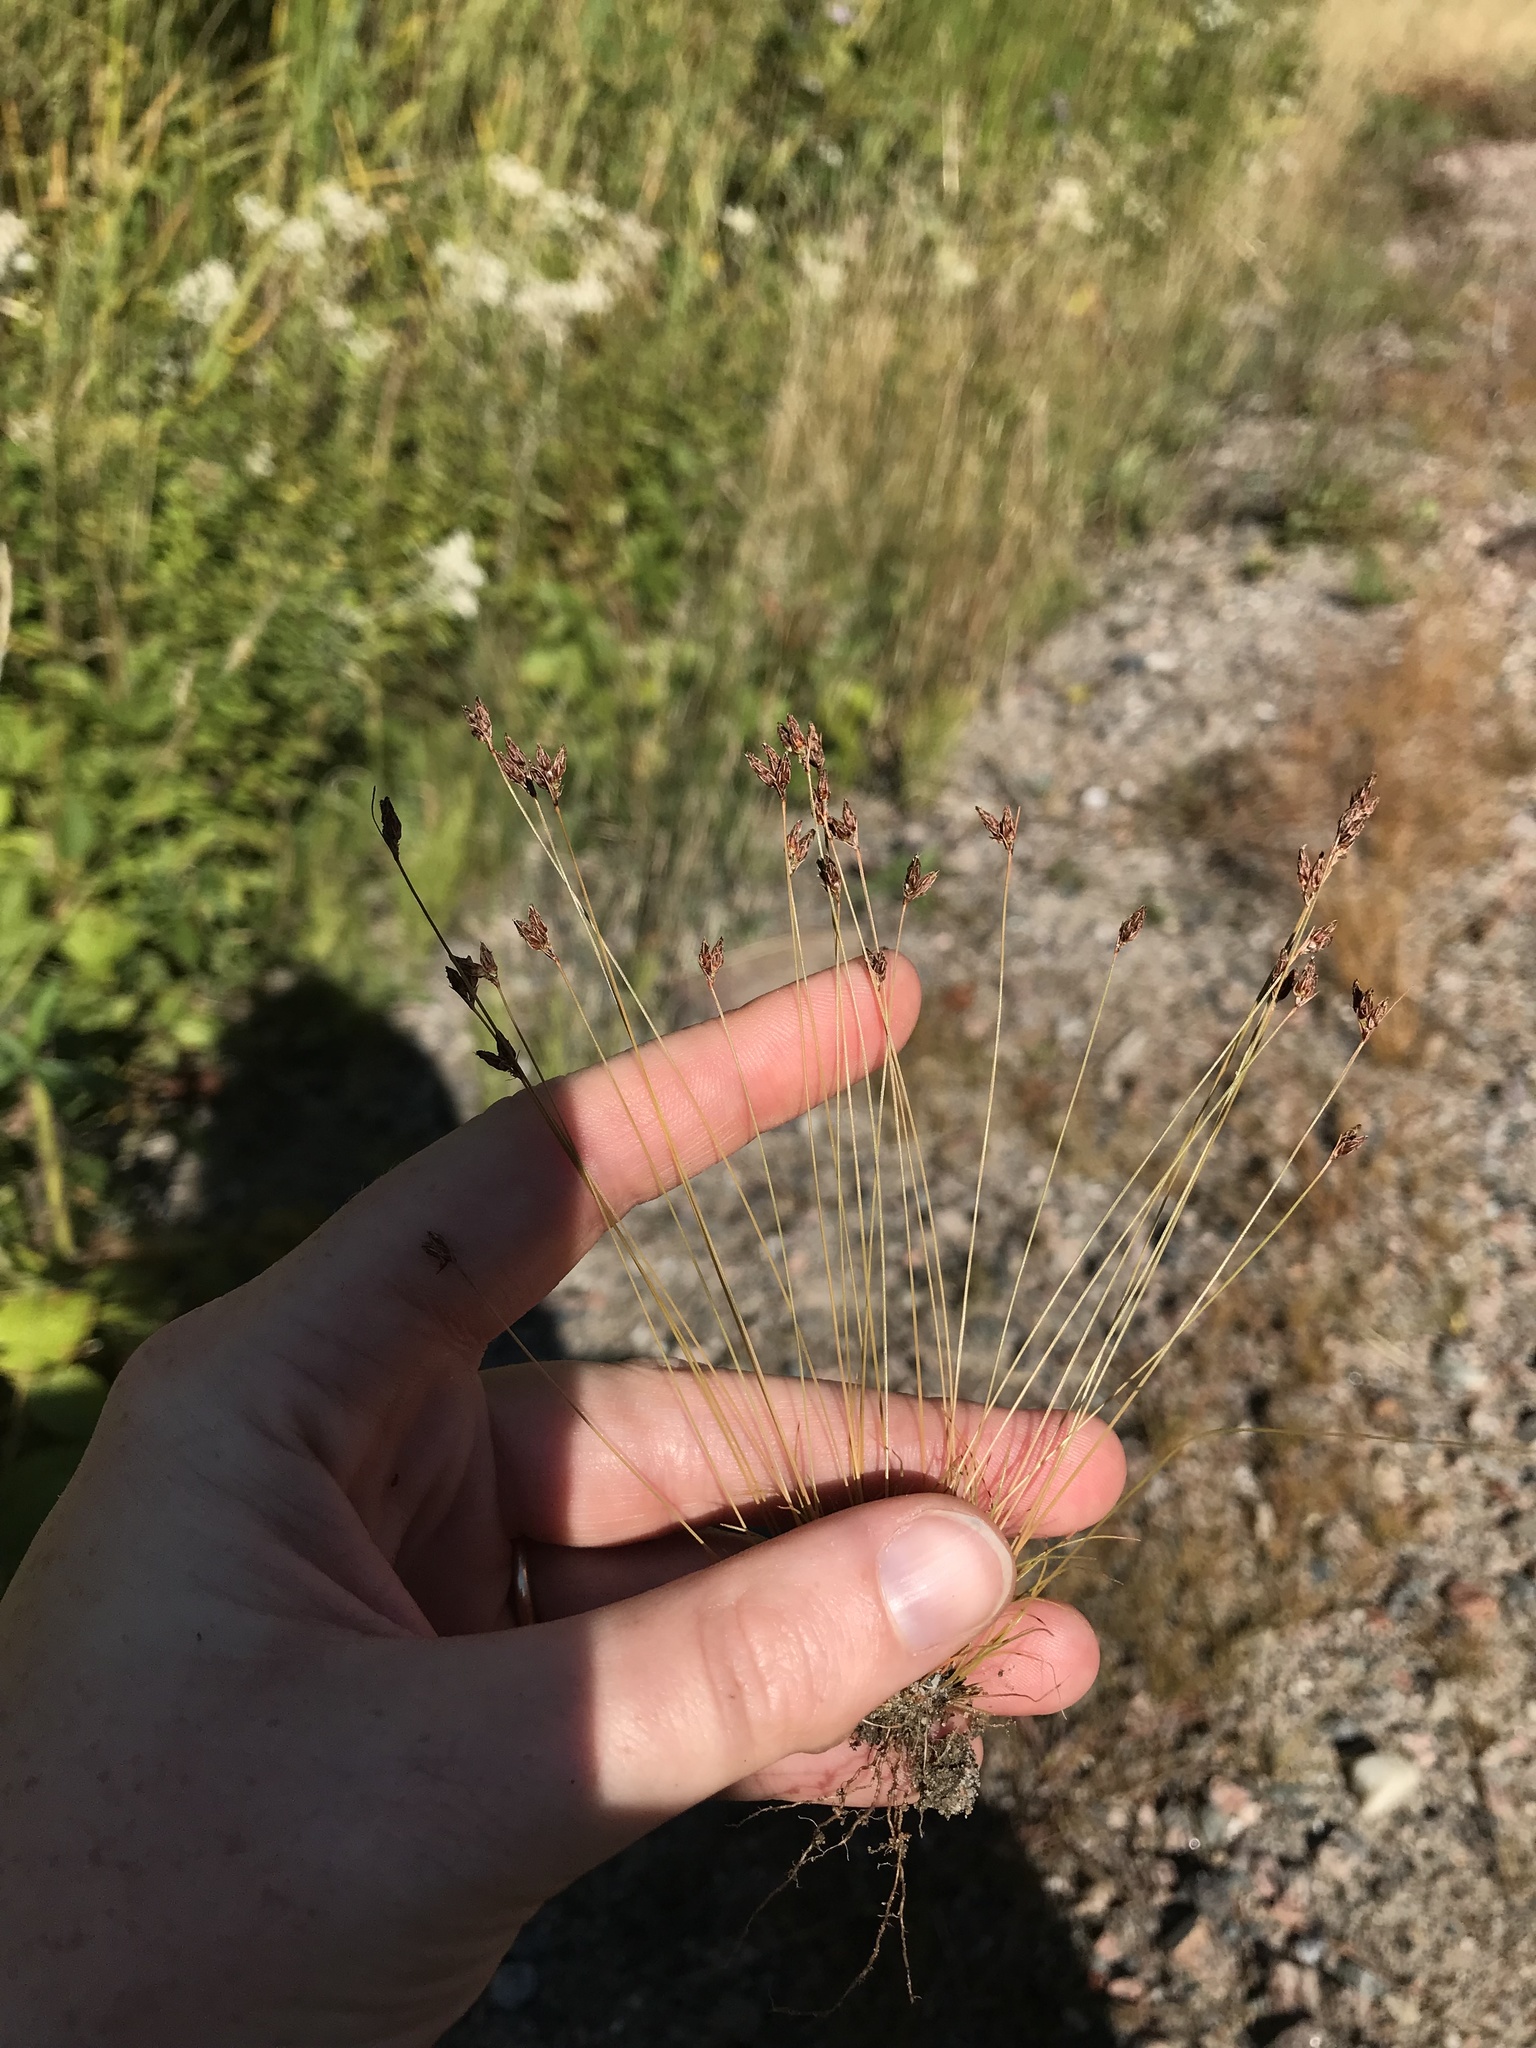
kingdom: Plantae
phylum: Tracheophyta
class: Liliopsida
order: Poales
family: Cyperaceae
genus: Bulbostylis
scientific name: Bulbostylis capillaris
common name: Densetuft hairsedge
